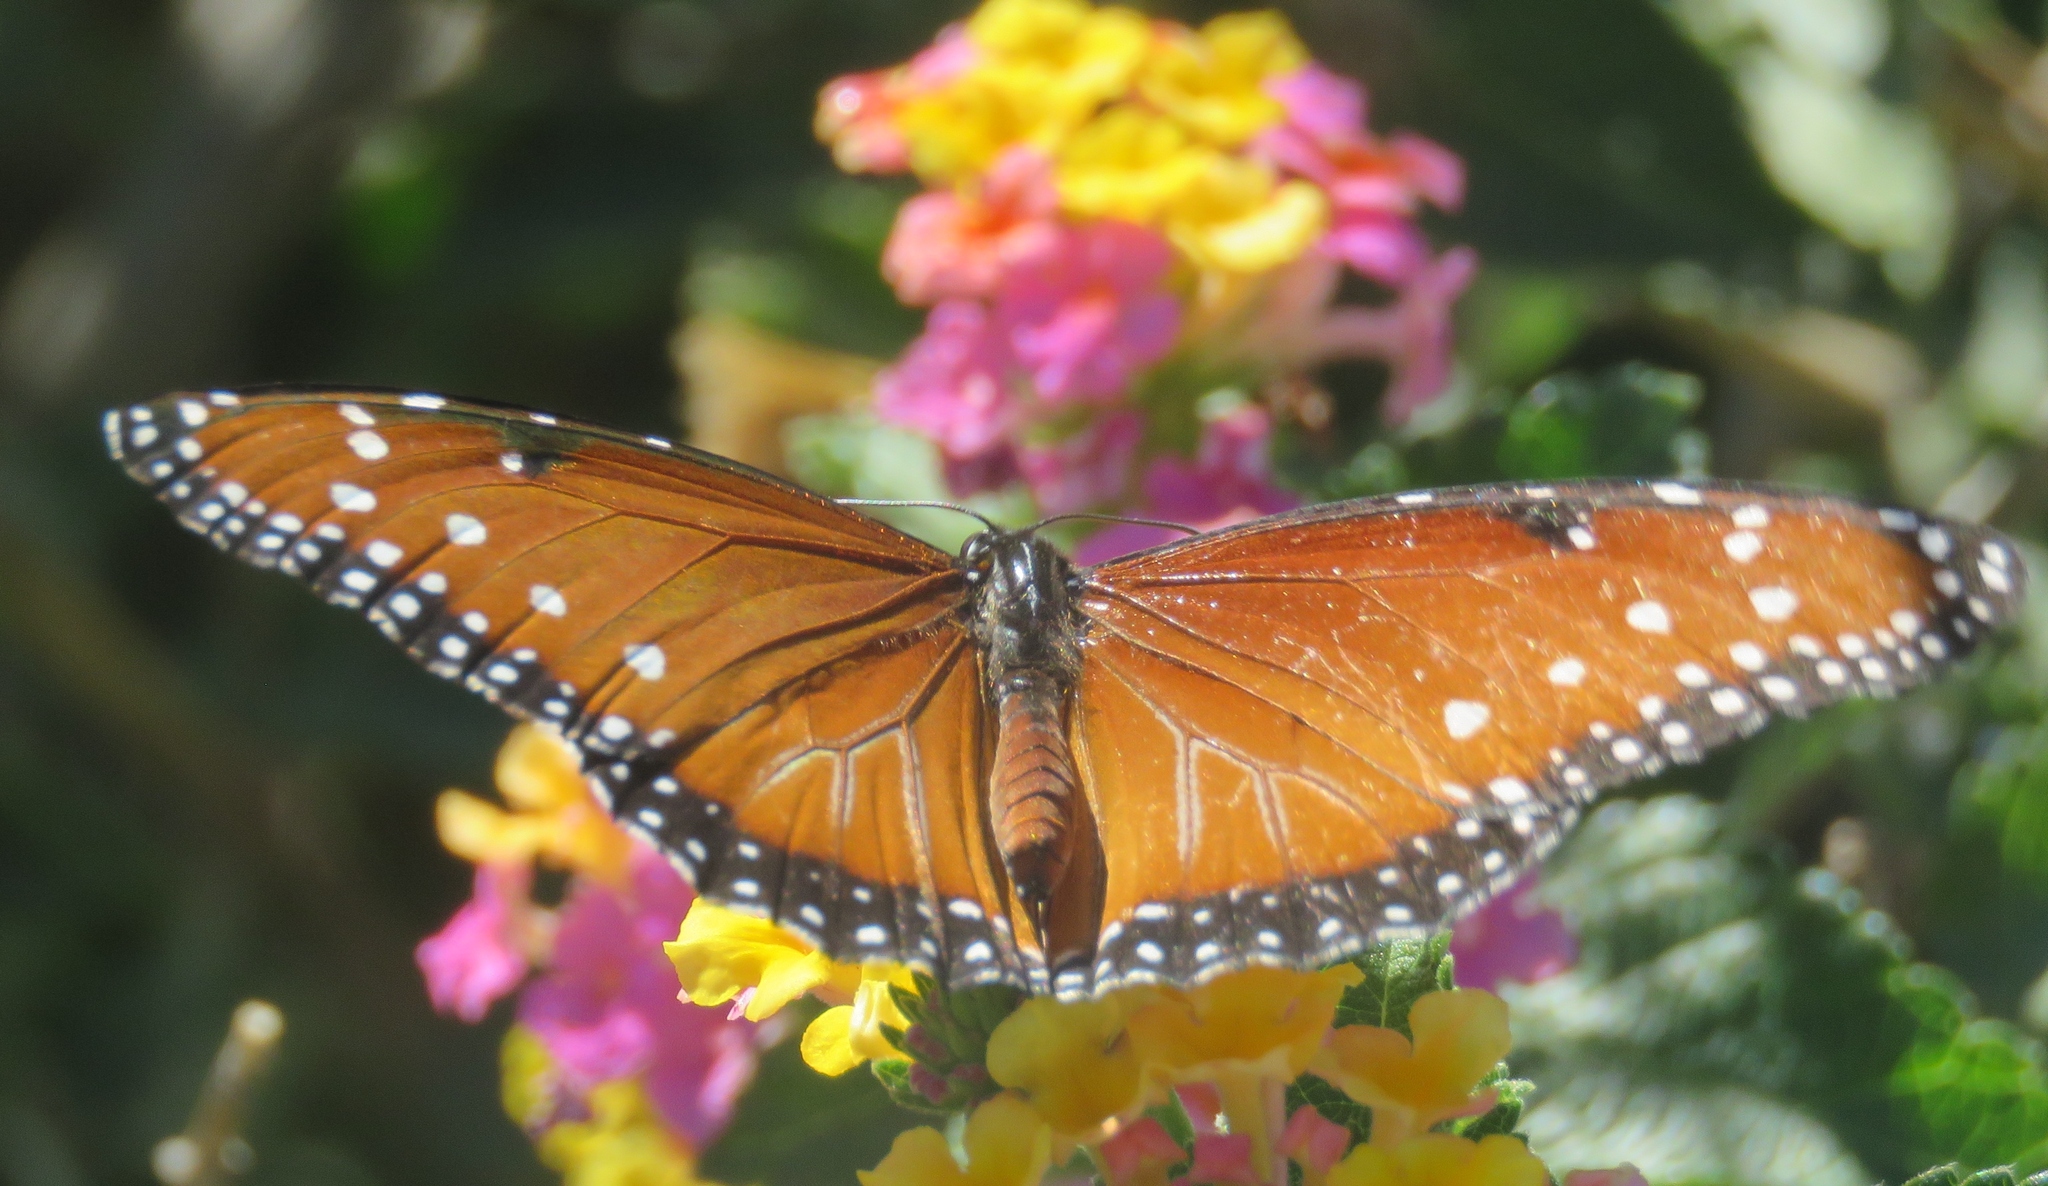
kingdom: Animalia
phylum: Arthropoda
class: Insecta
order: Lepidoptera
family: Nymphalidae
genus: Danaus
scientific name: Danaus gilippus
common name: Queen
